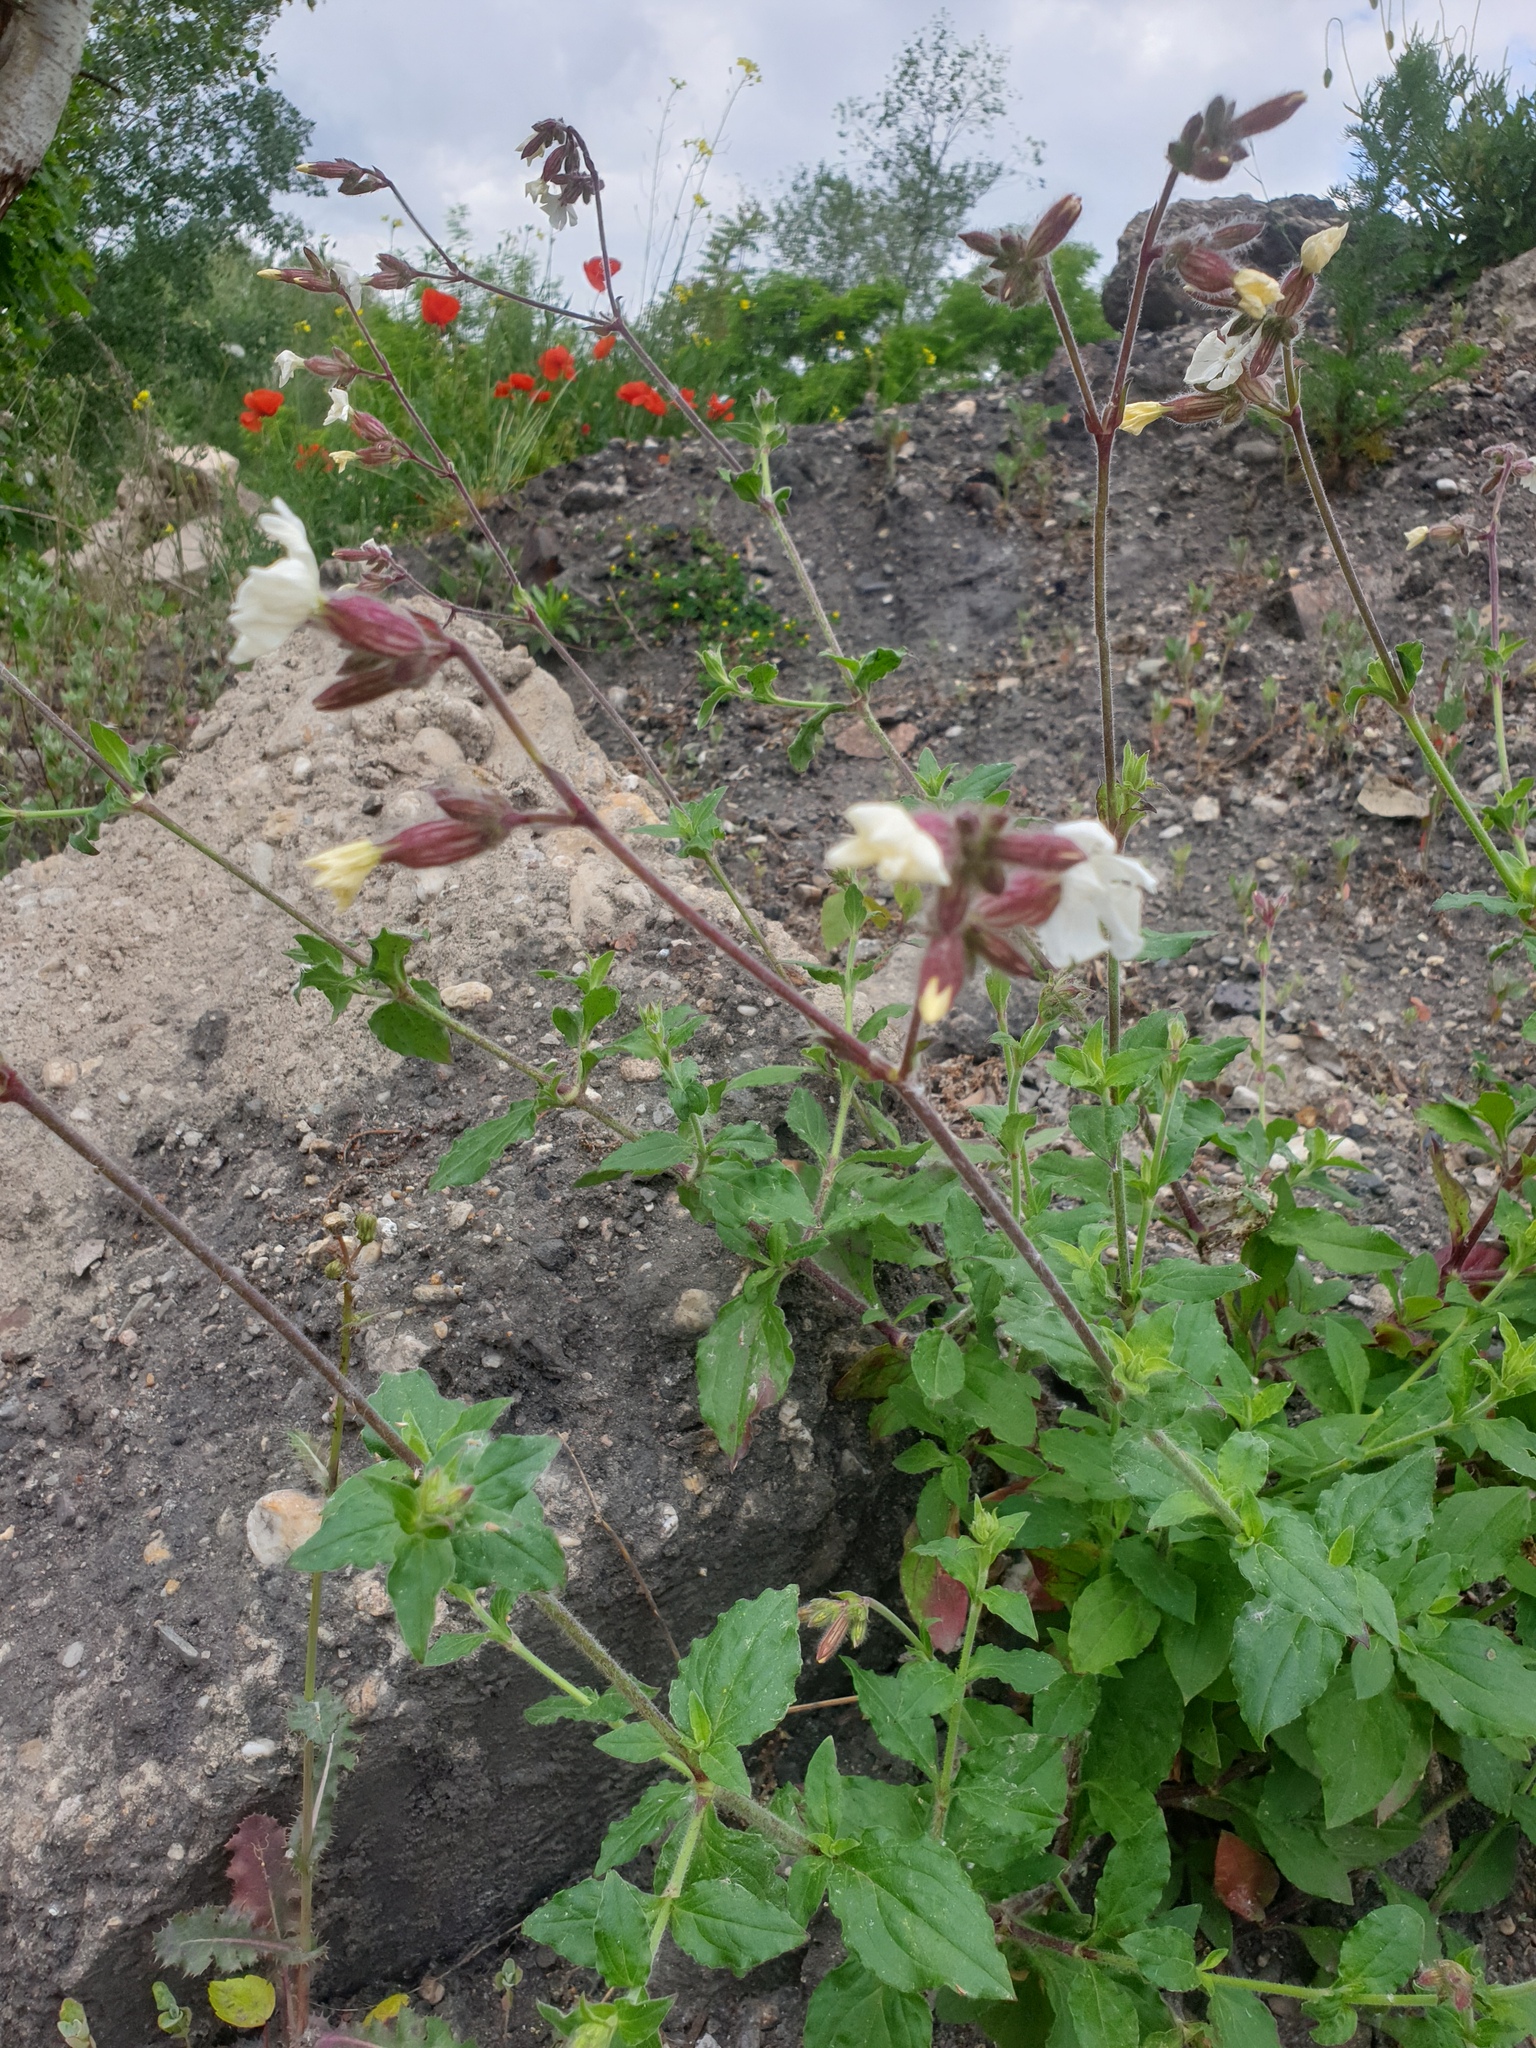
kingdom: Plantae
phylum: Tracheophyta
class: Magnoliopsida
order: Caryophyllales
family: Caryophyllaceae
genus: Silene
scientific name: Silene latifolia
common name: White campion
